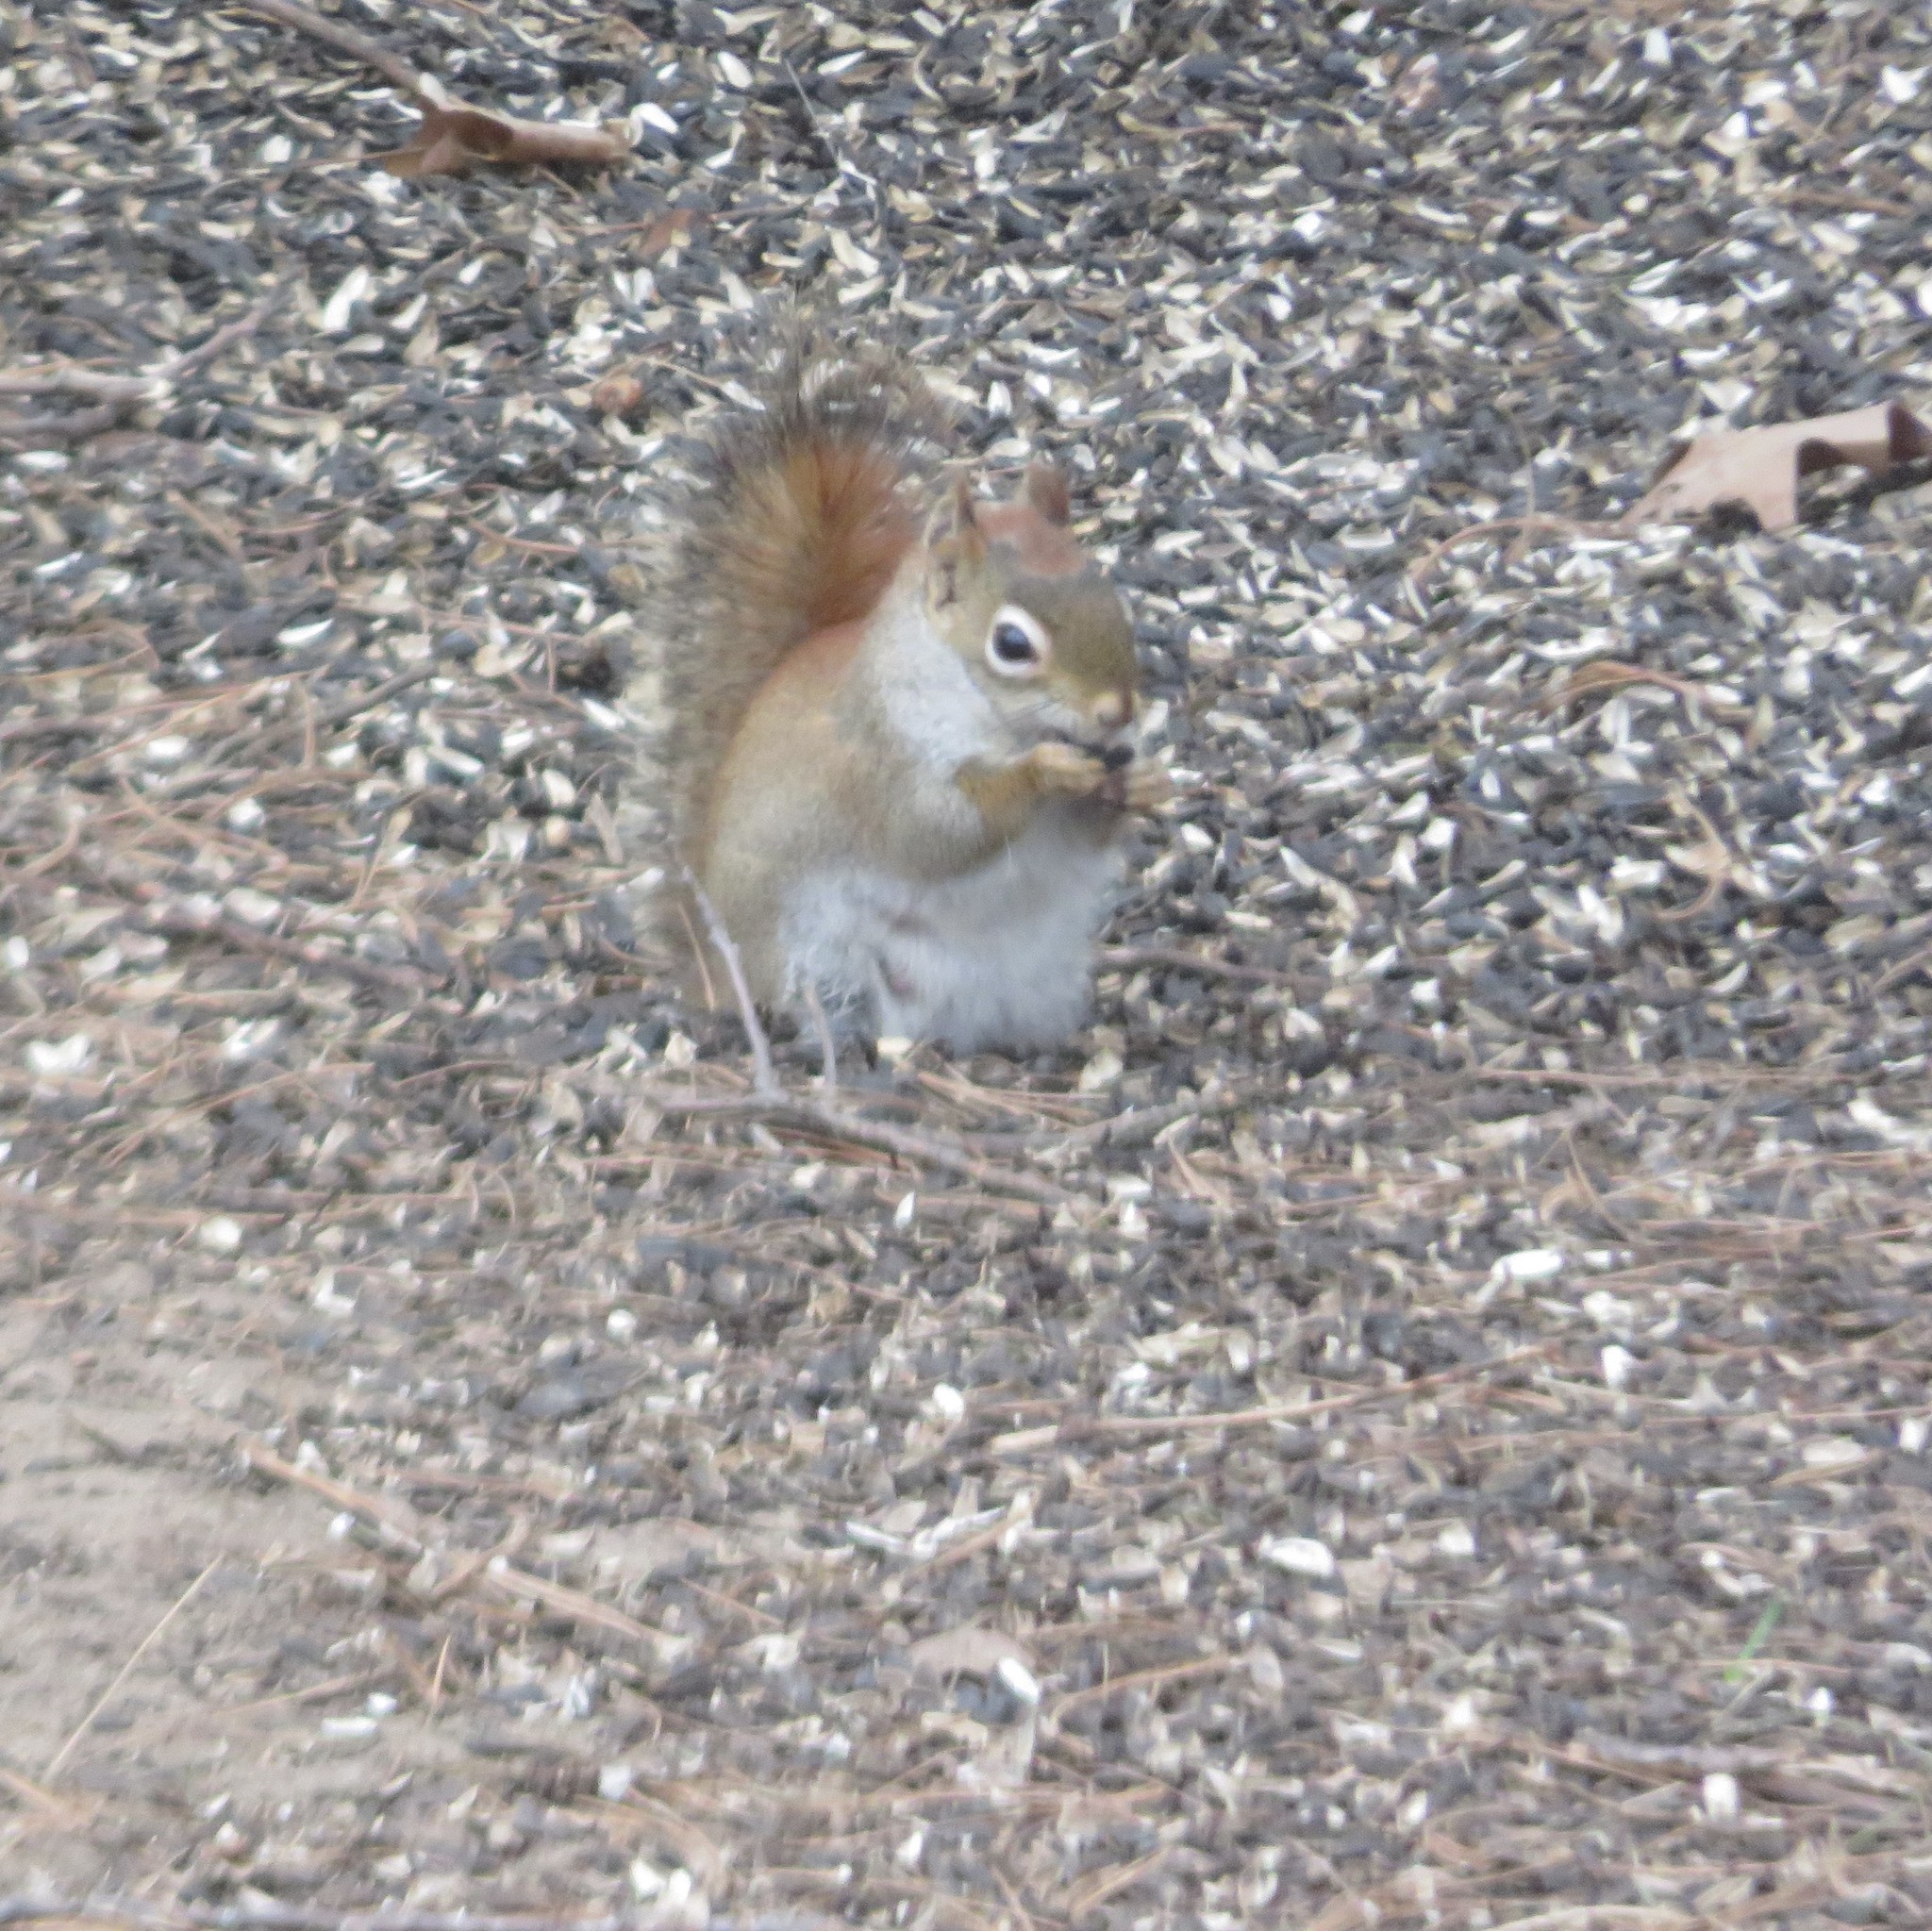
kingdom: Animalia
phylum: Chordata
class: Mammalia
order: Rodentia
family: Sciuridae
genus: Tamiasciurus
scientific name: Tamiasciurus hudsonicus
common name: Red squirrel
